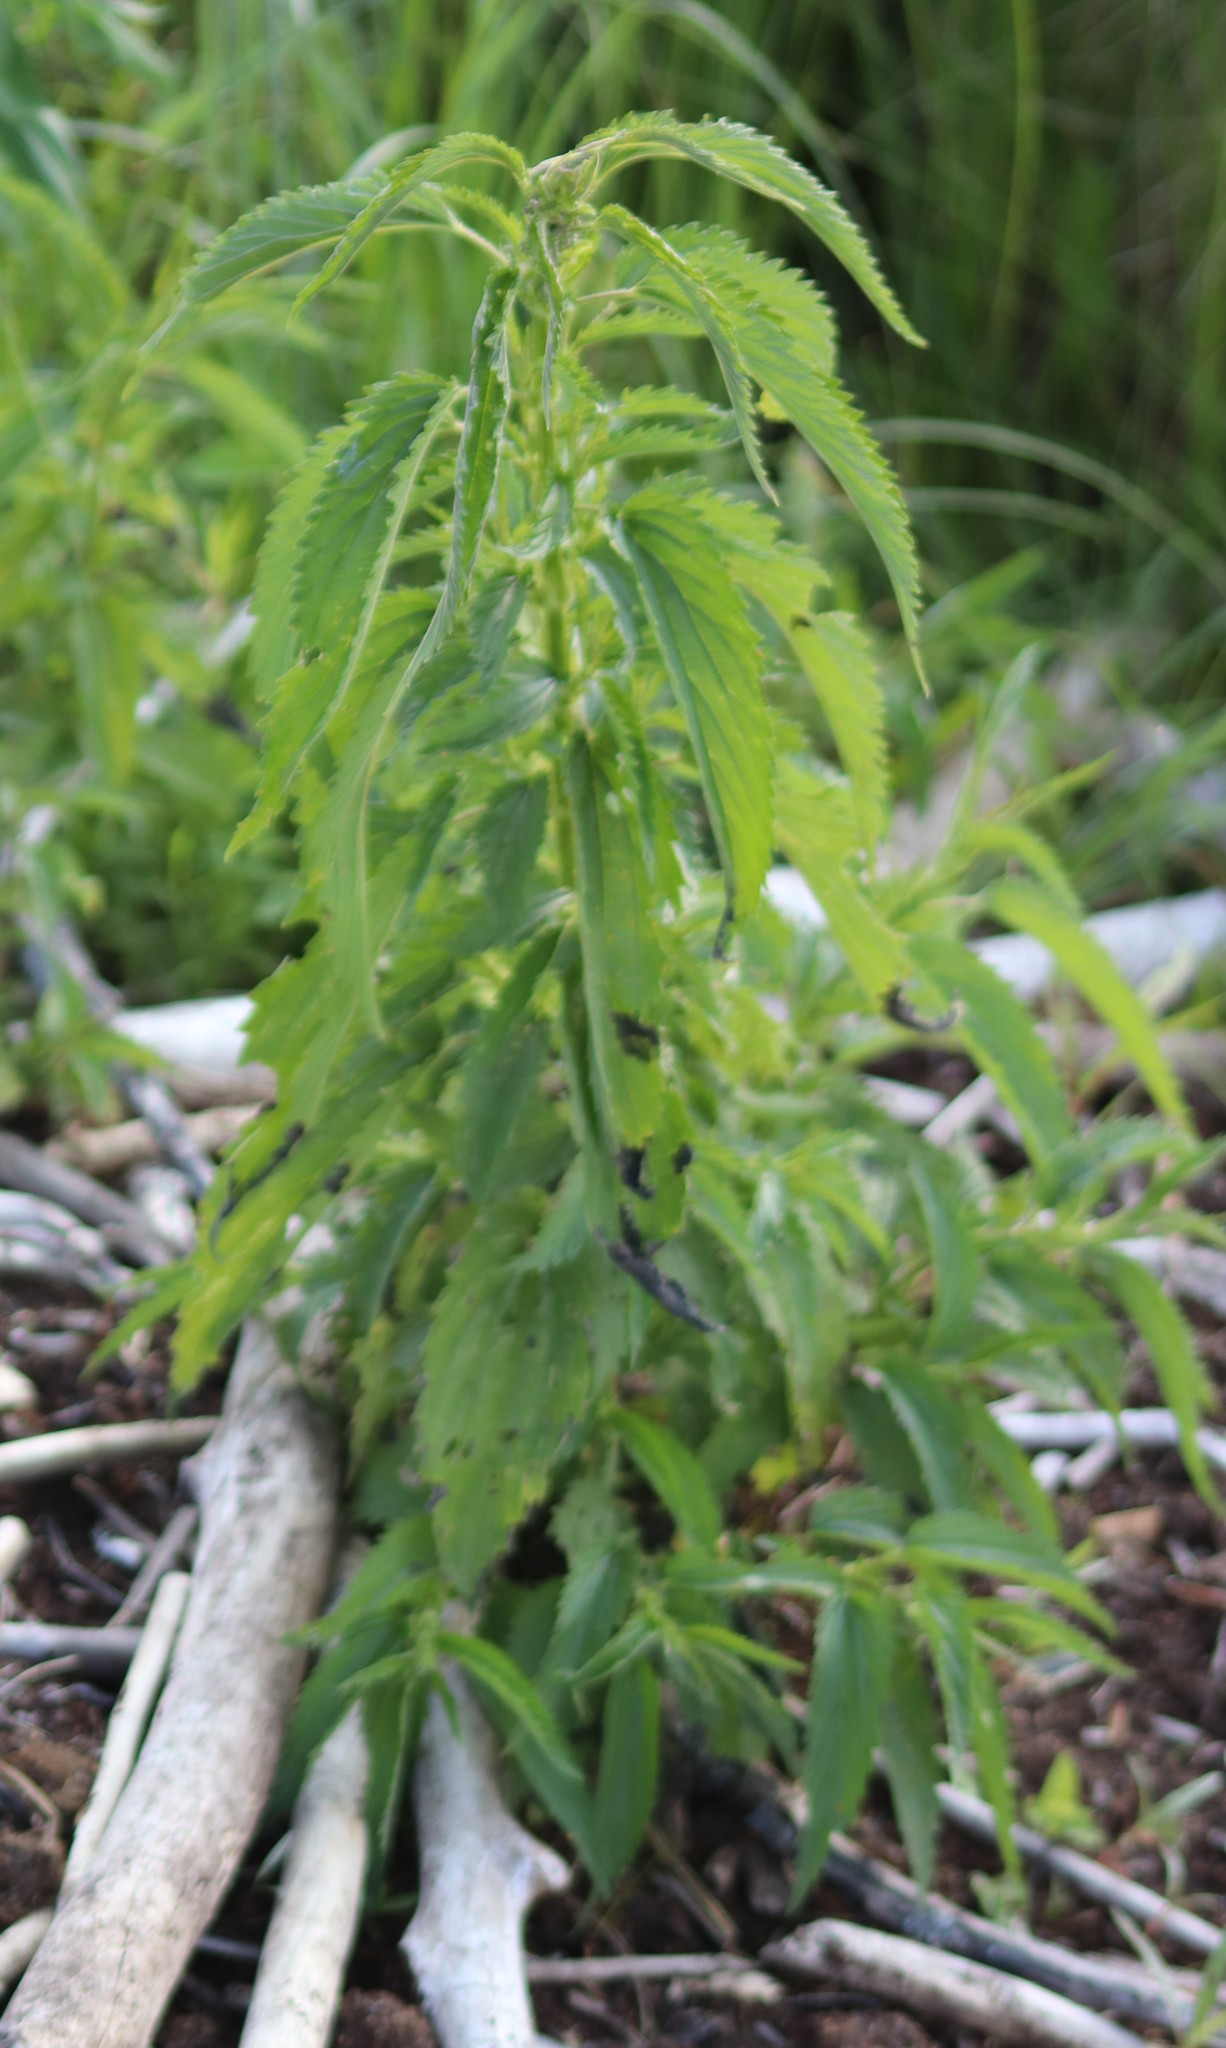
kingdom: Plantae
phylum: Tracheophyta
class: Magnoliopsida
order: Rosales
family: Urticaceae
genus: Urtica
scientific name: Urtica gracilis
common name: Slender stinging nettle
